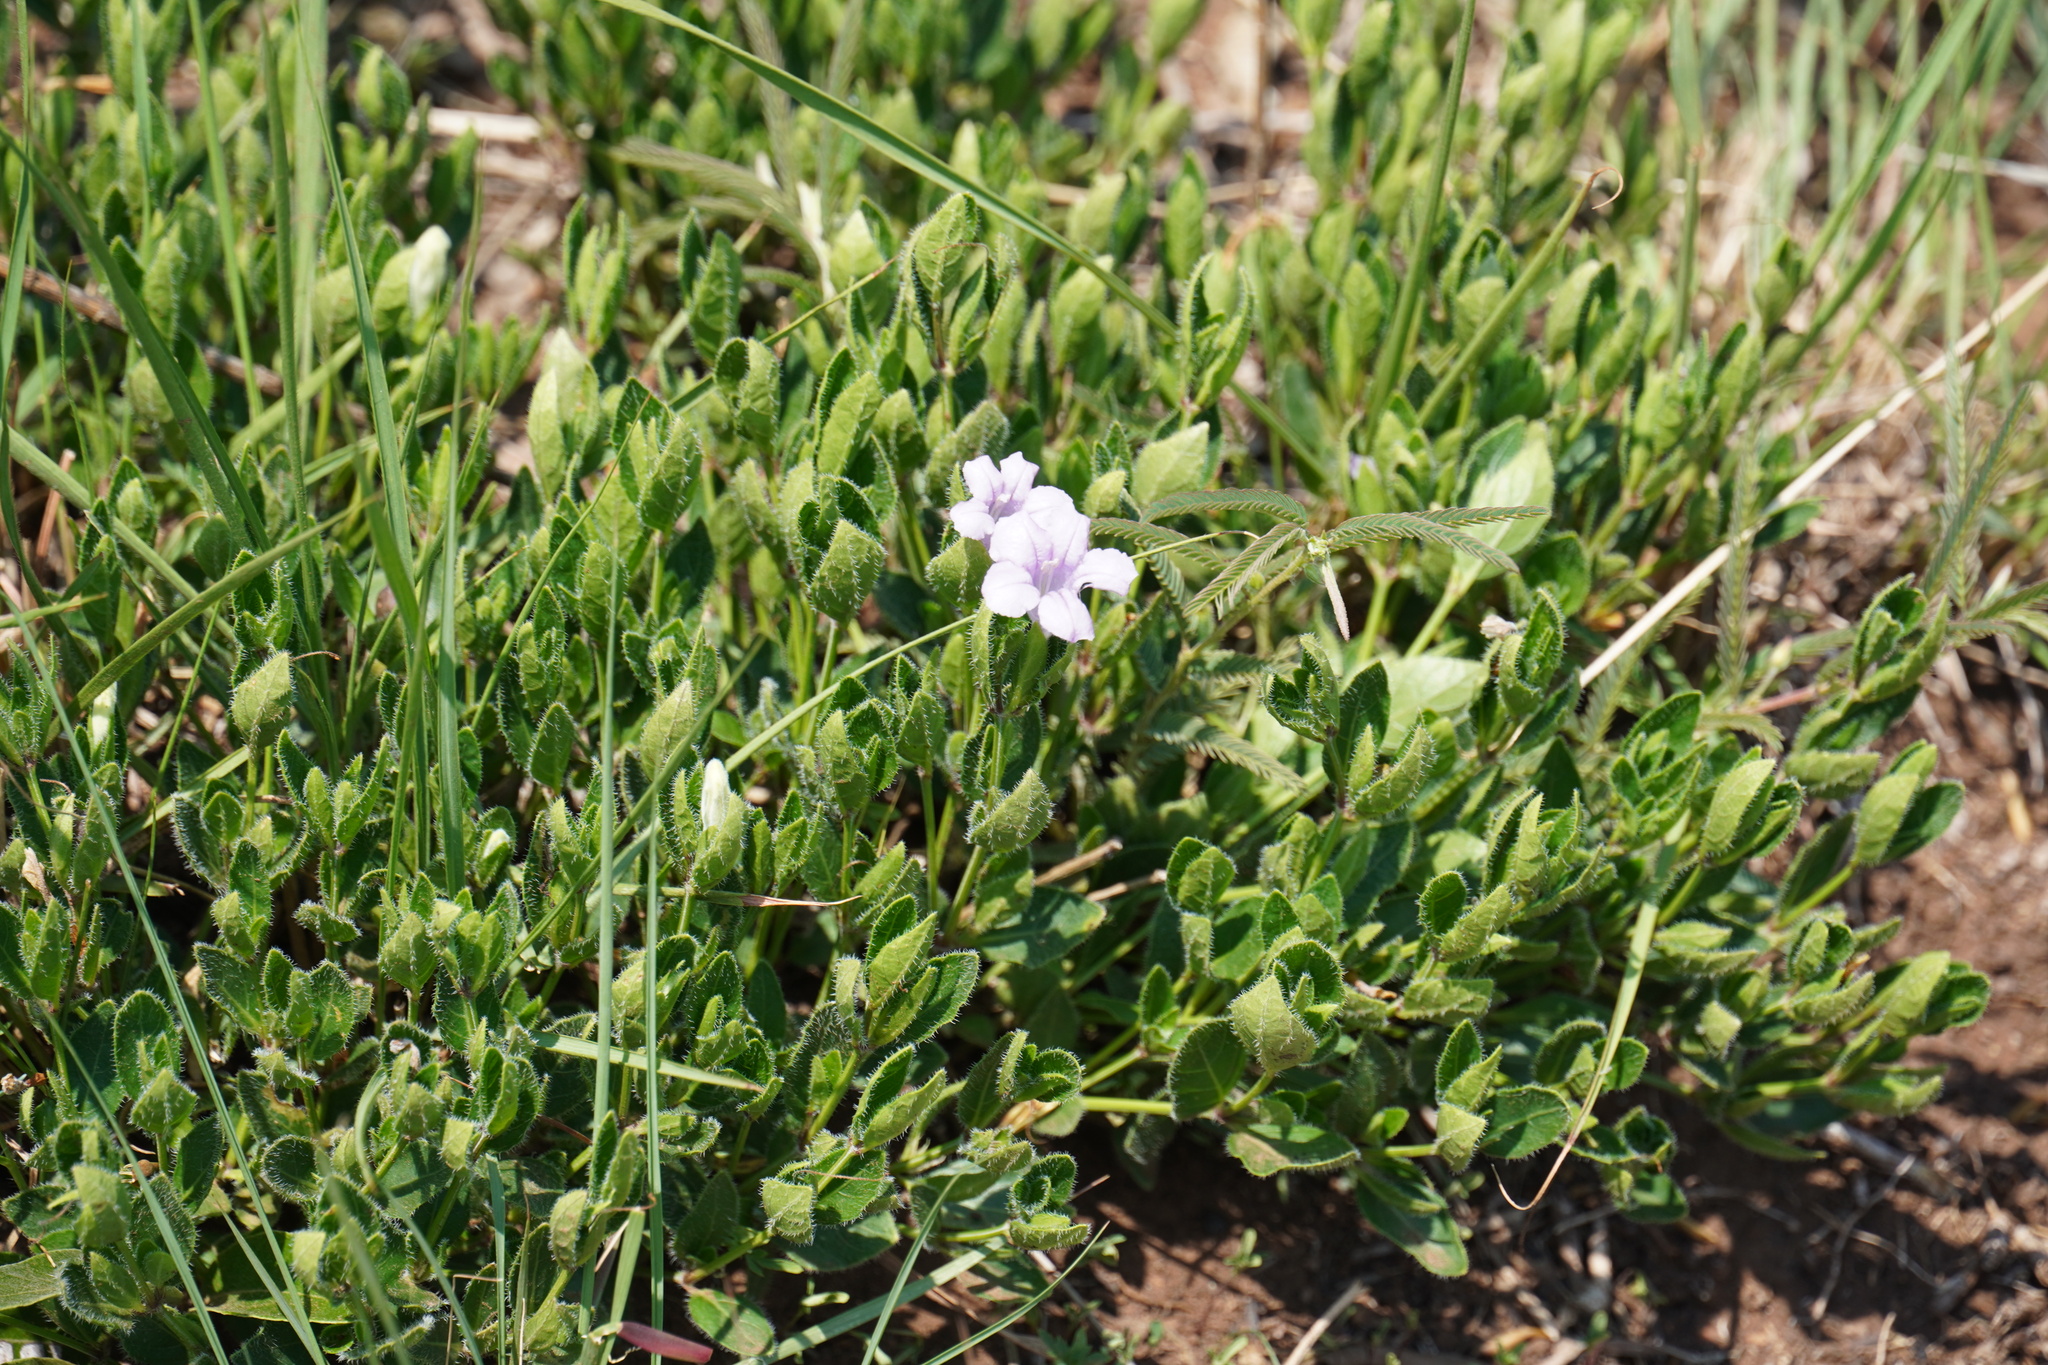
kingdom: Plantae
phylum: Tracheophyta
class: Magnoliopsida
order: Lamiales
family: Acanthaceae
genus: Ruellia
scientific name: Ruellia cordata
